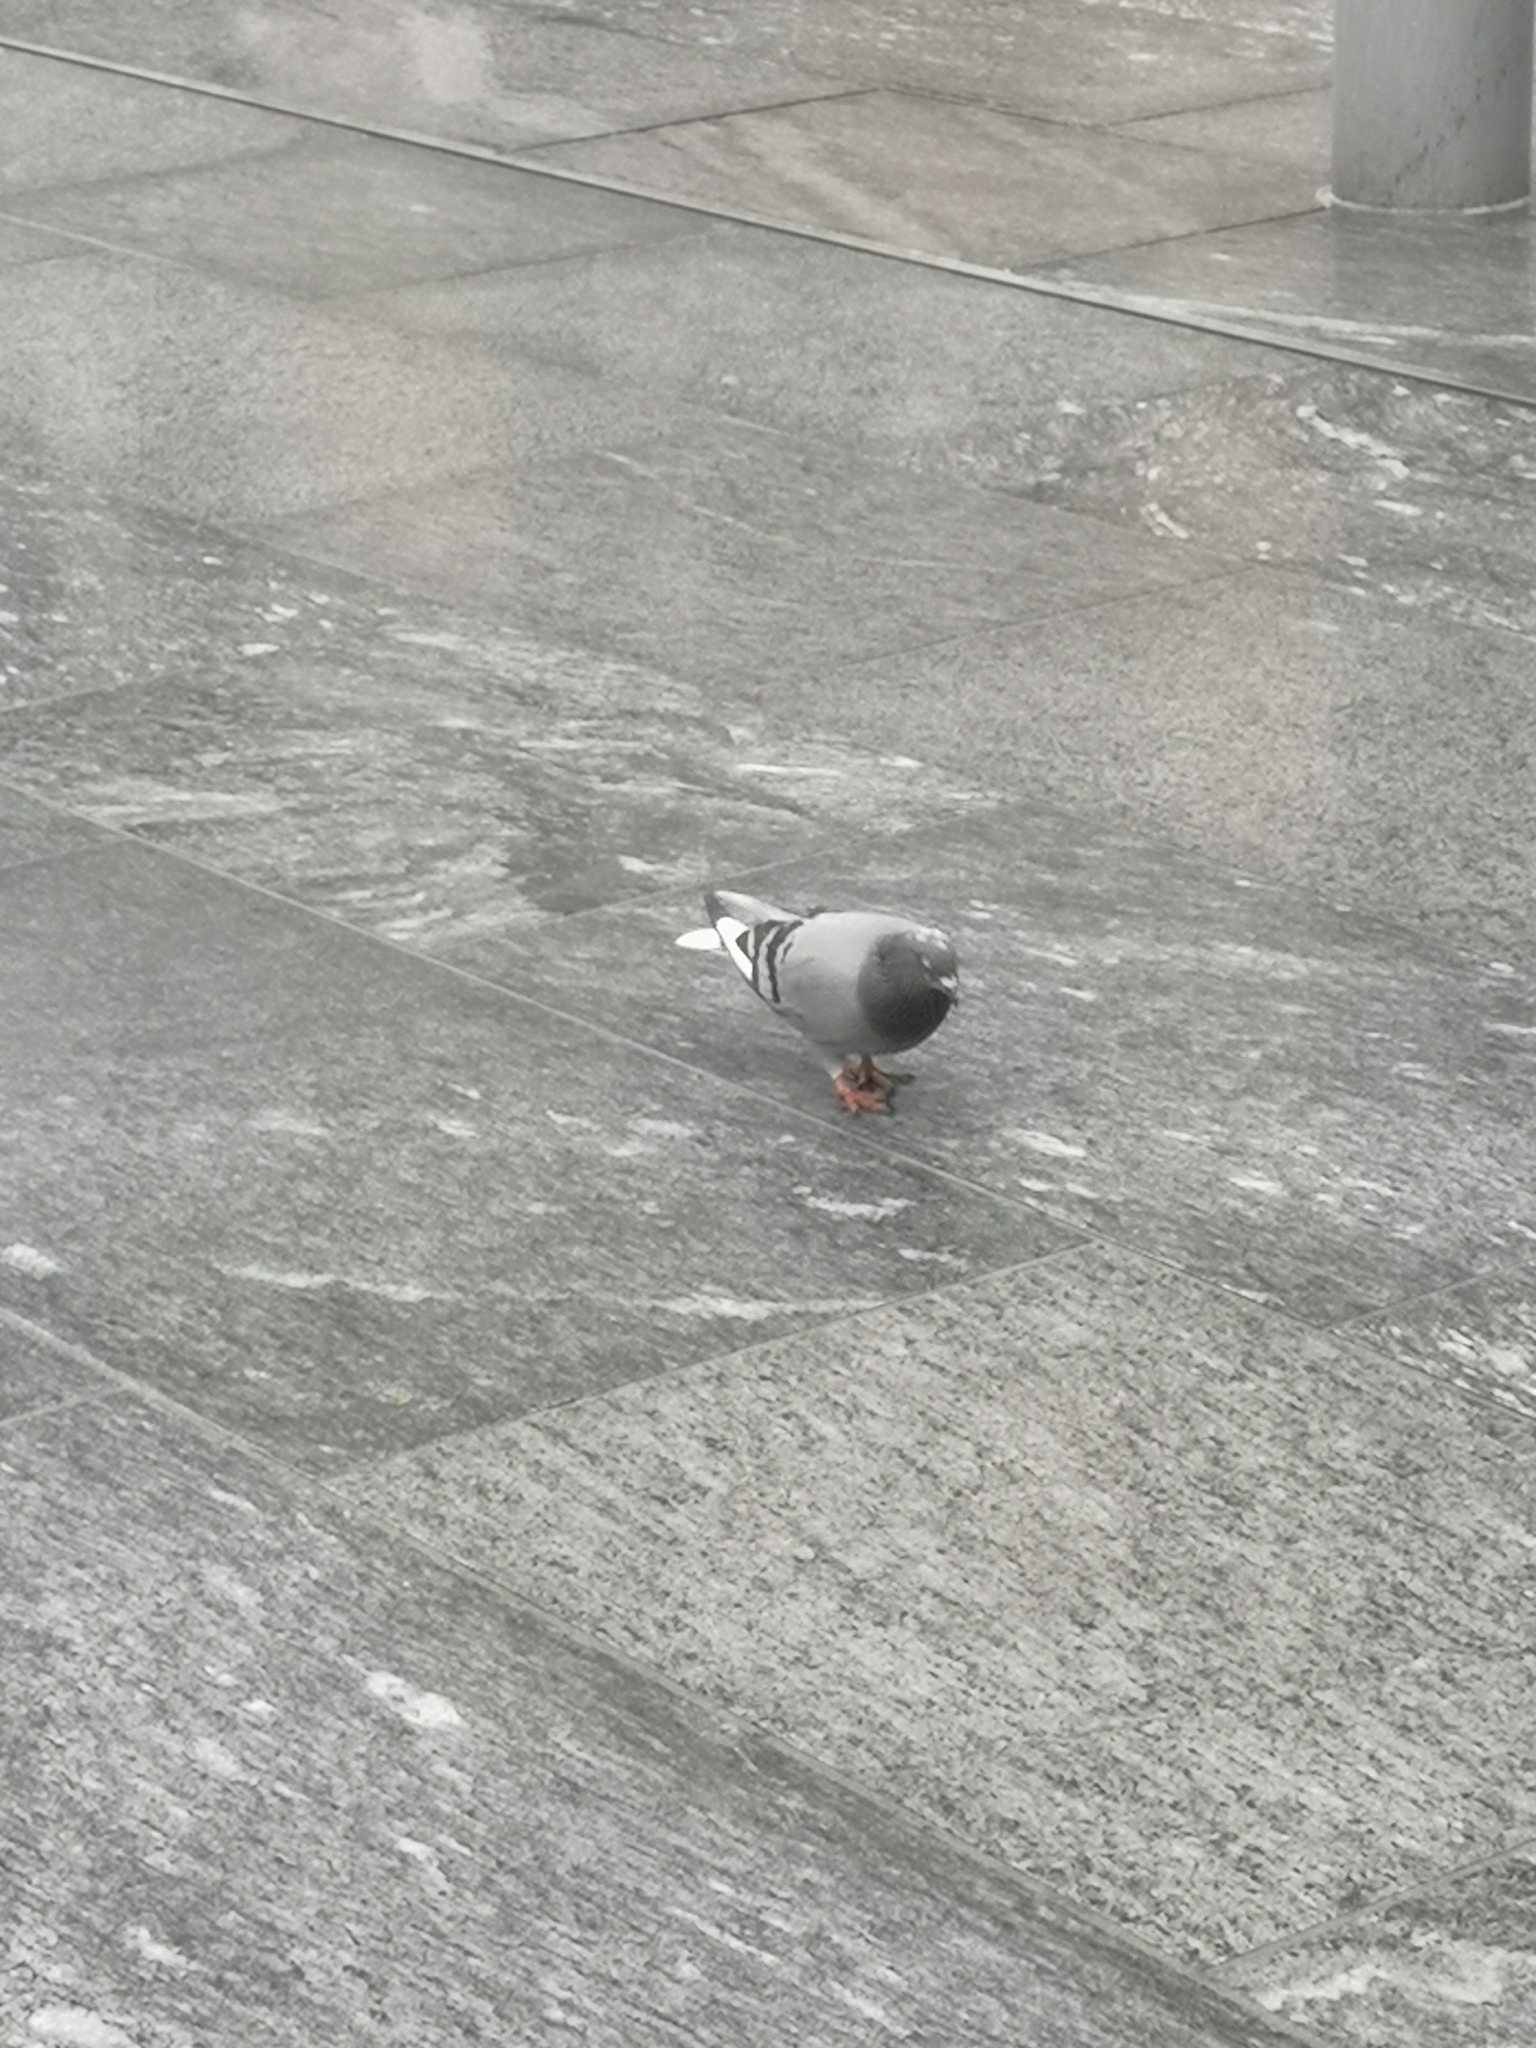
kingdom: Animalia
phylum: Chordata
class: Aves
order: Columbiformes
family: Columbidae
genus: Columba
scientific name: Columba livia
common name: Rock pigeon
